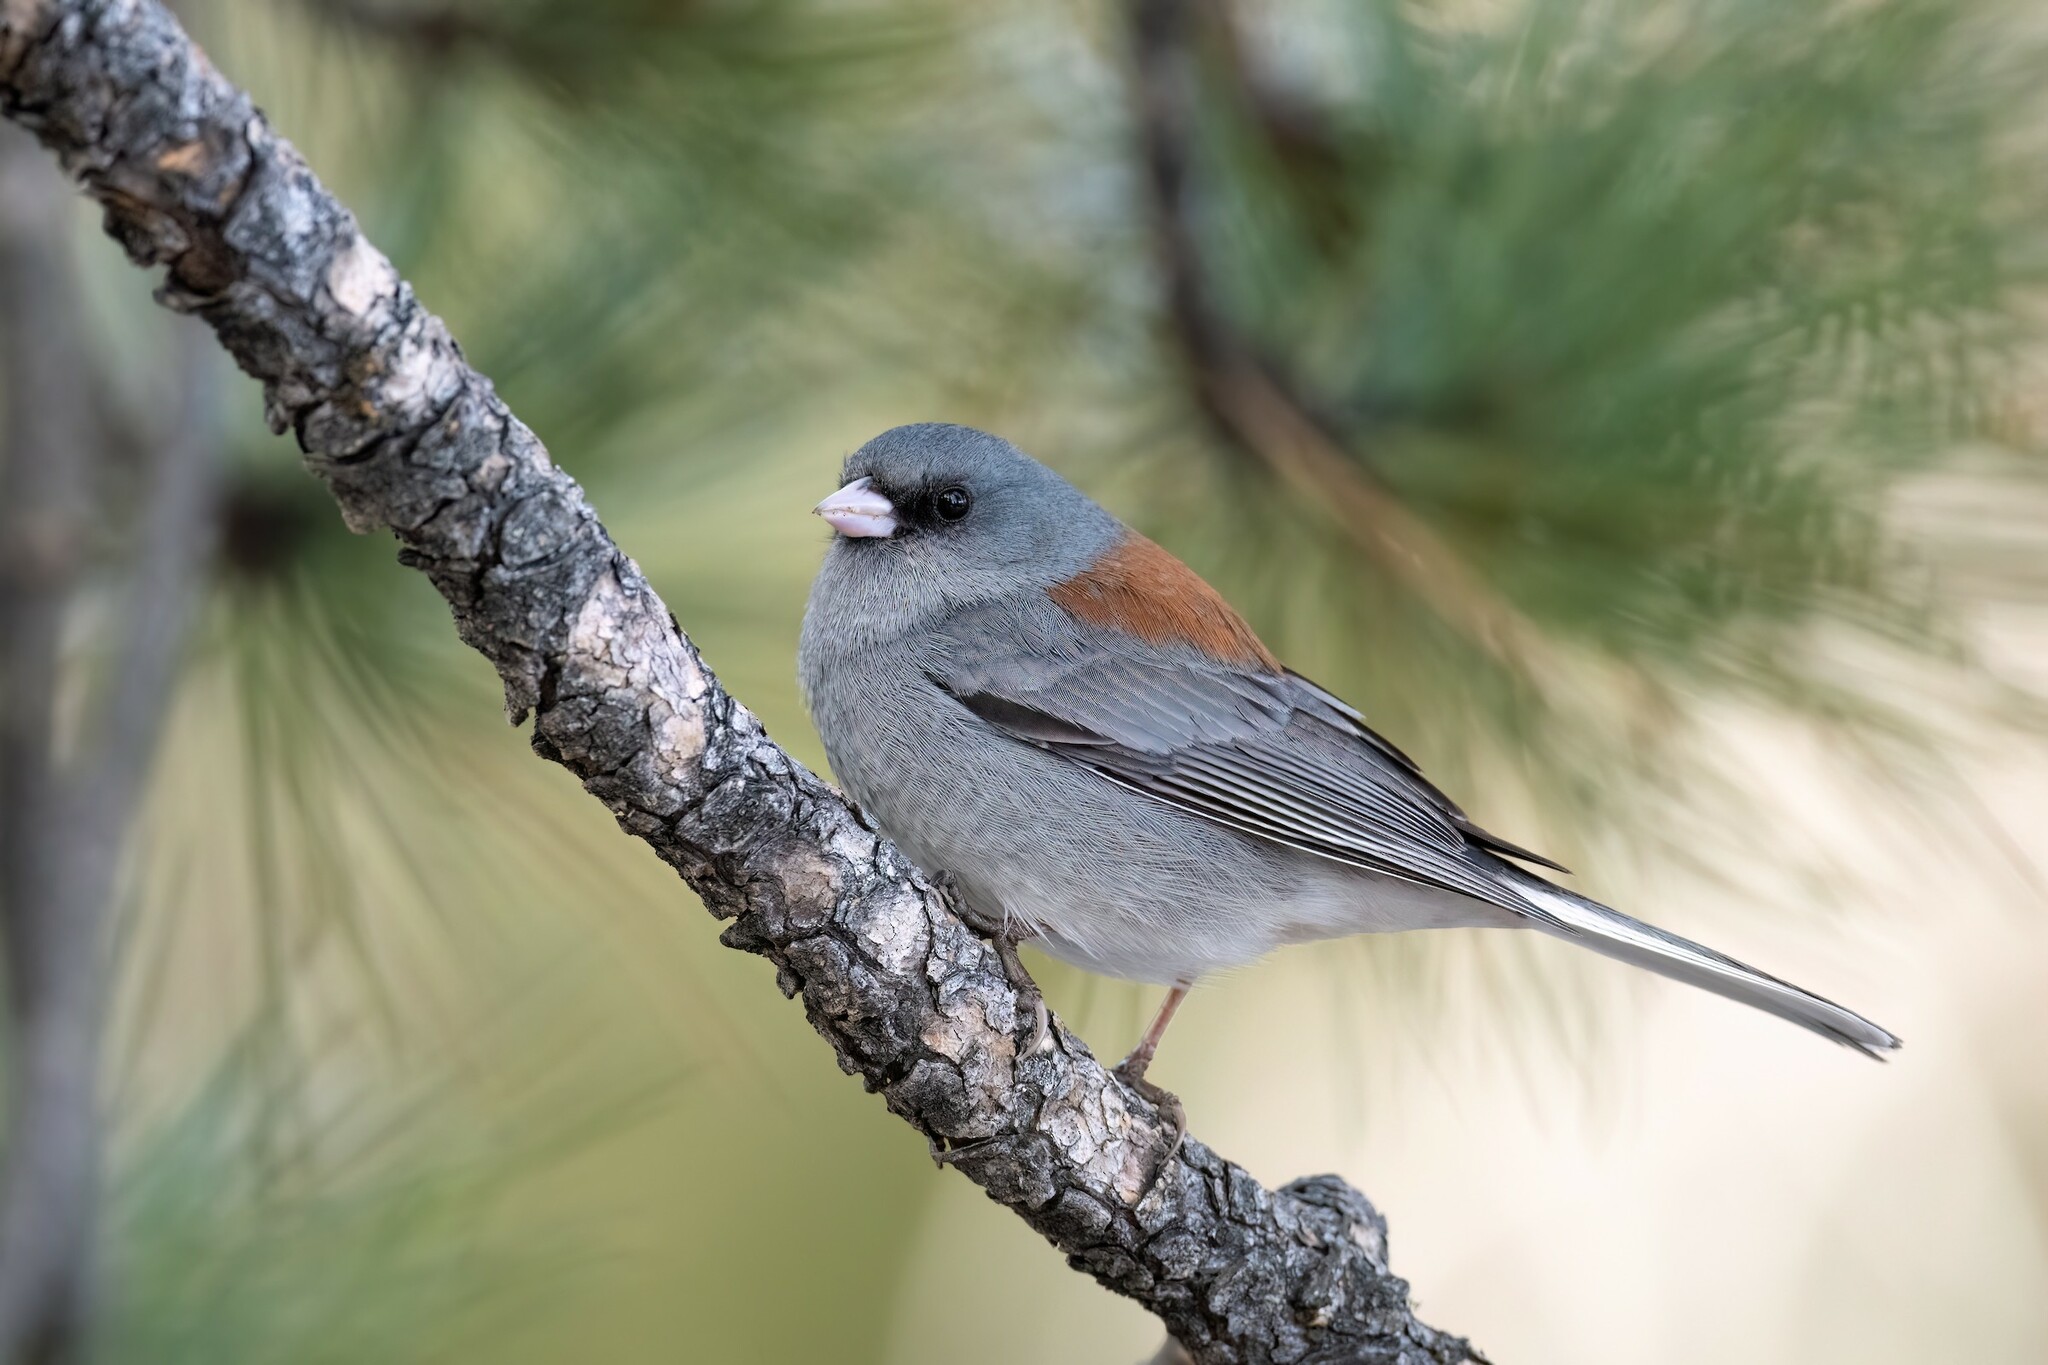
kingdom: Animalia
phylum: Chordata
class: Aves
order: Passeriformes
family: Passerellidae
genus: Junco
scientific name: Junco hyemalis
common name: Dark-eyed junco
